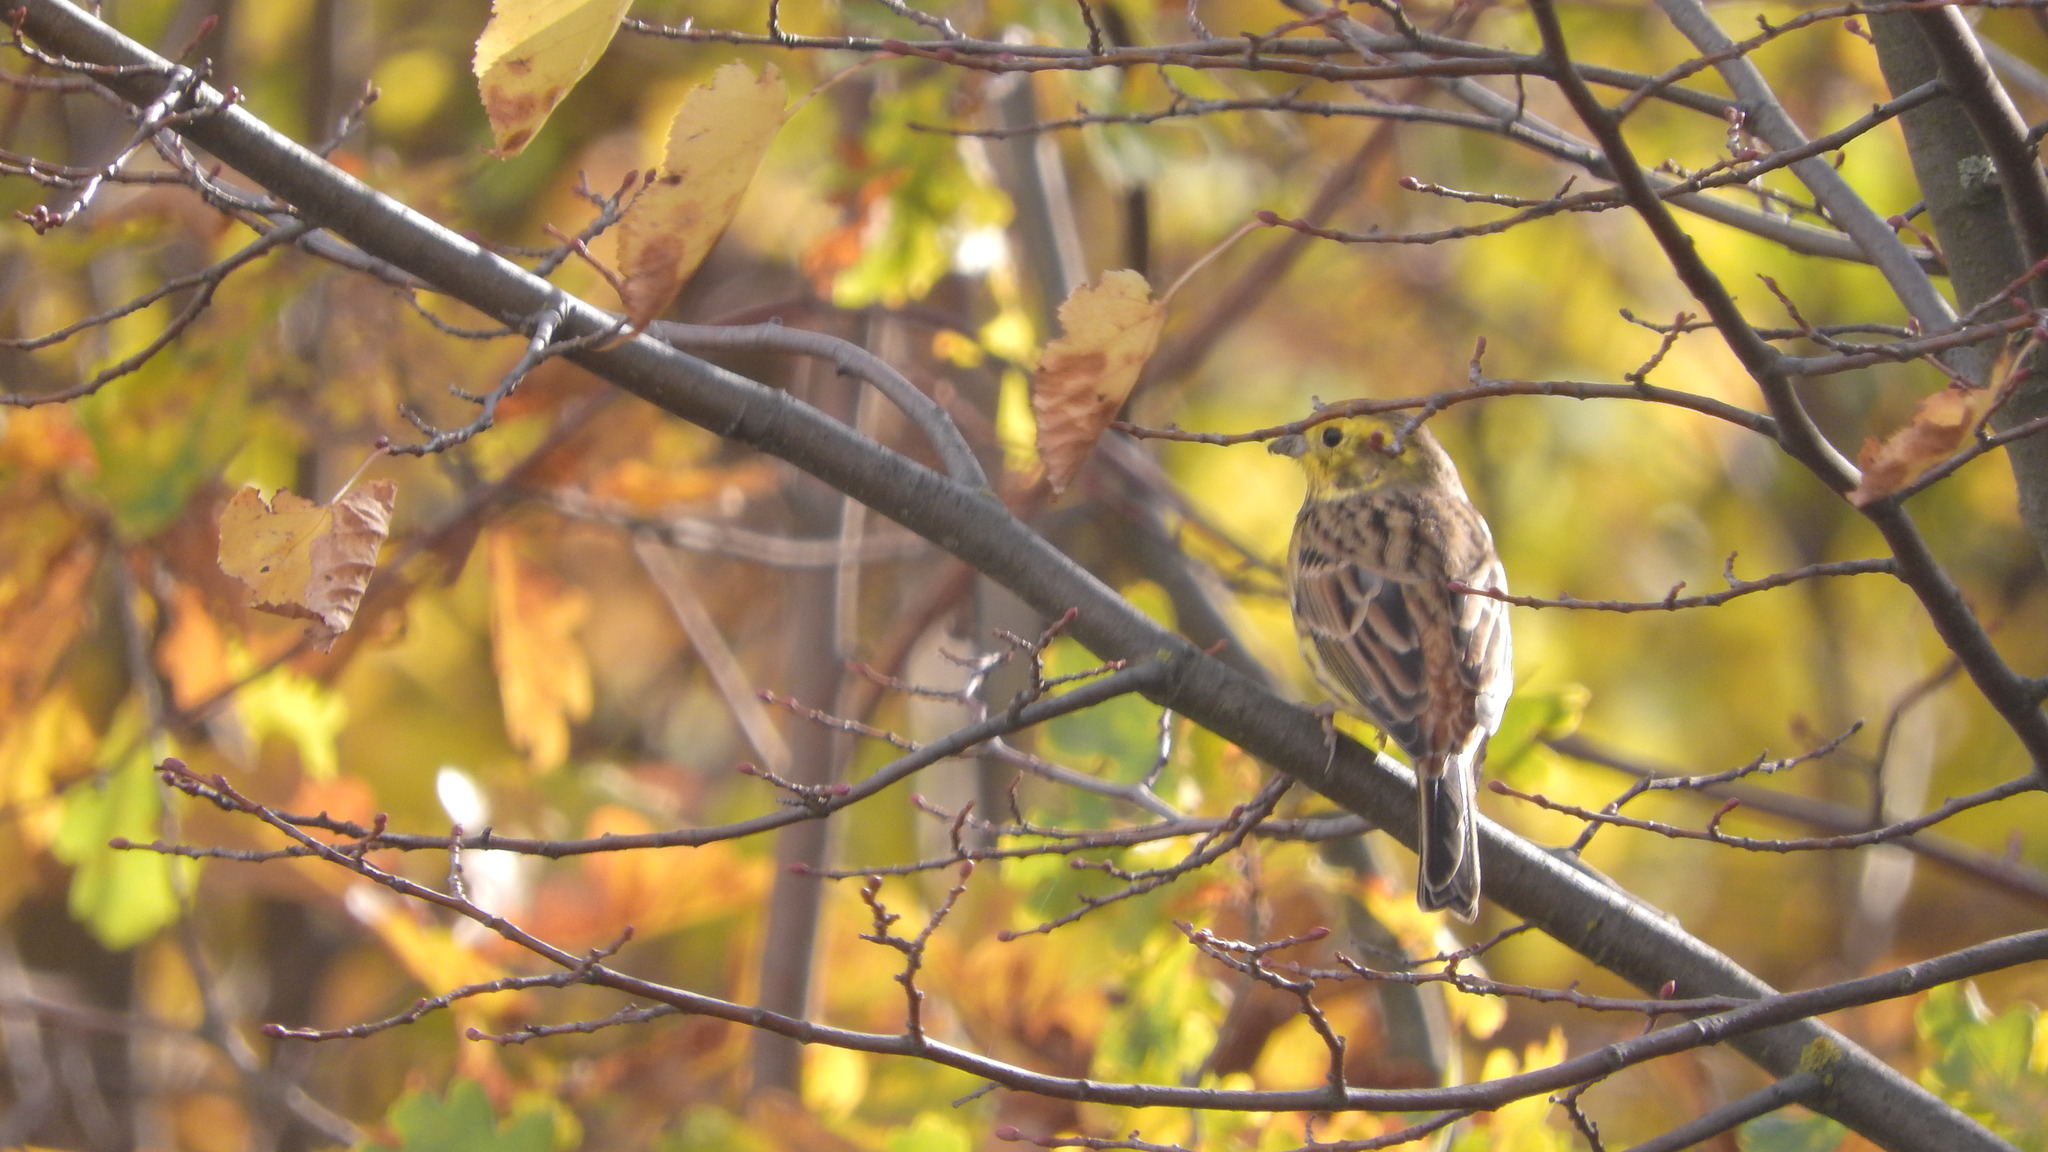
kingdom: Animalia
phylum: Chordata
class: Aves
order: Passeriformes
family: Emberizidae
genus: Emberiza
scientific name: Emberiza citrinella
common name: Yellowhammer
